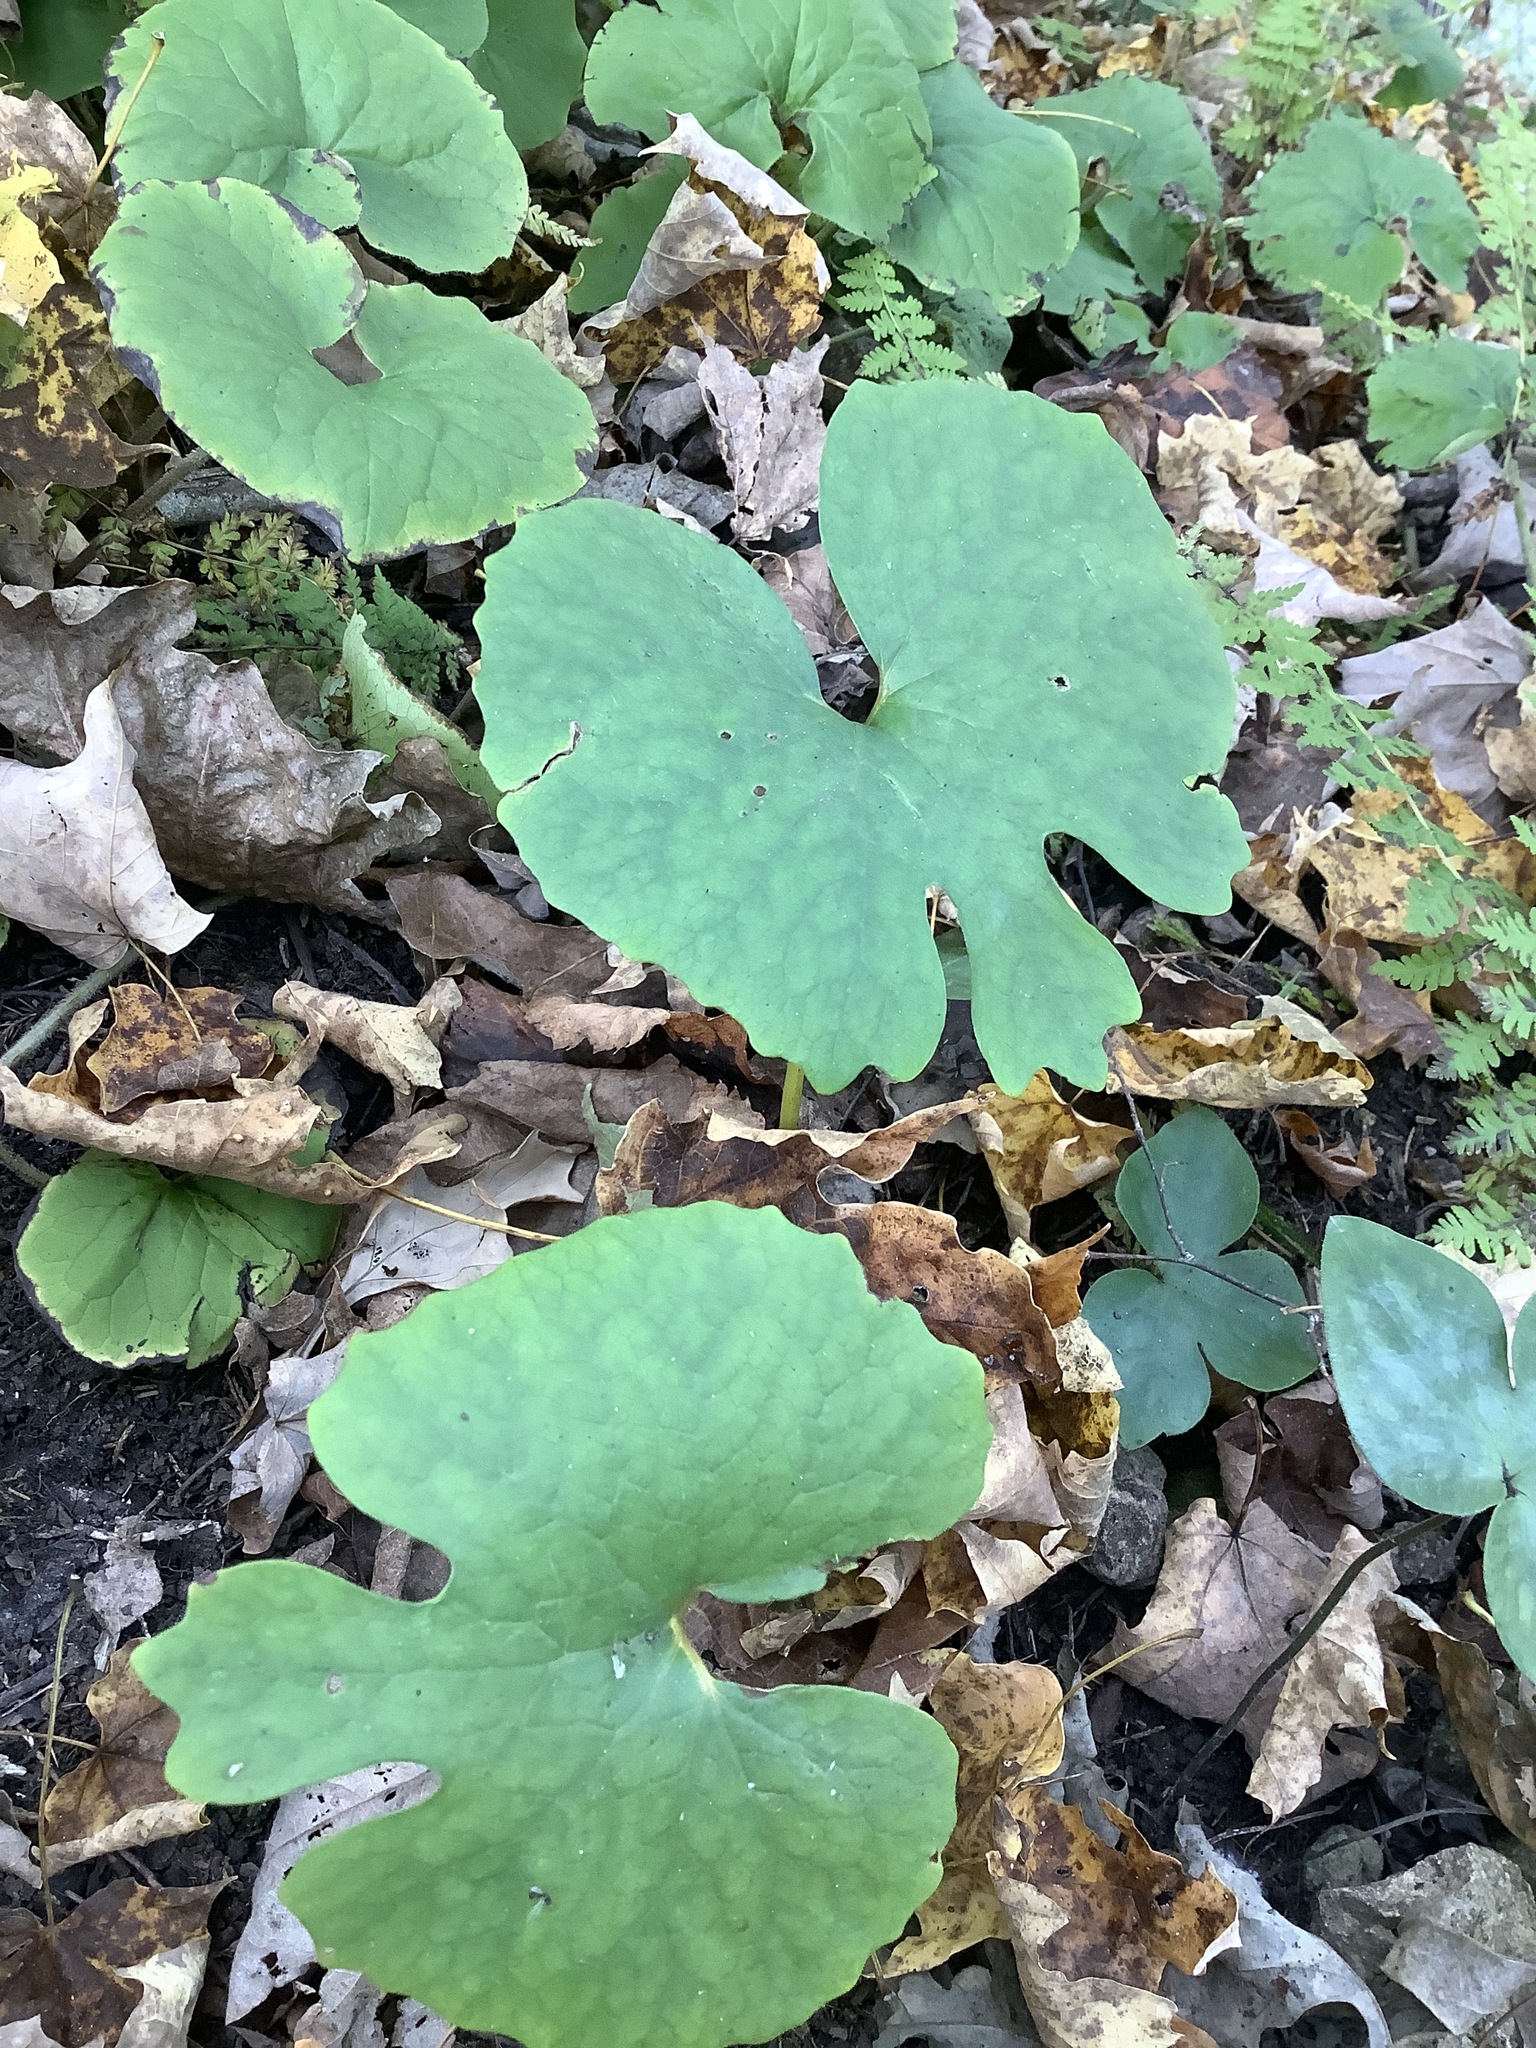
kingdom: Plantae
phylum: Tracheophyta
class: Magnoliopsida
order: Ranunculales
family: Papaveraceae
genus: Sanguinaria
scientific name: Sanguinaria canadensis
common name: Bloodroot
